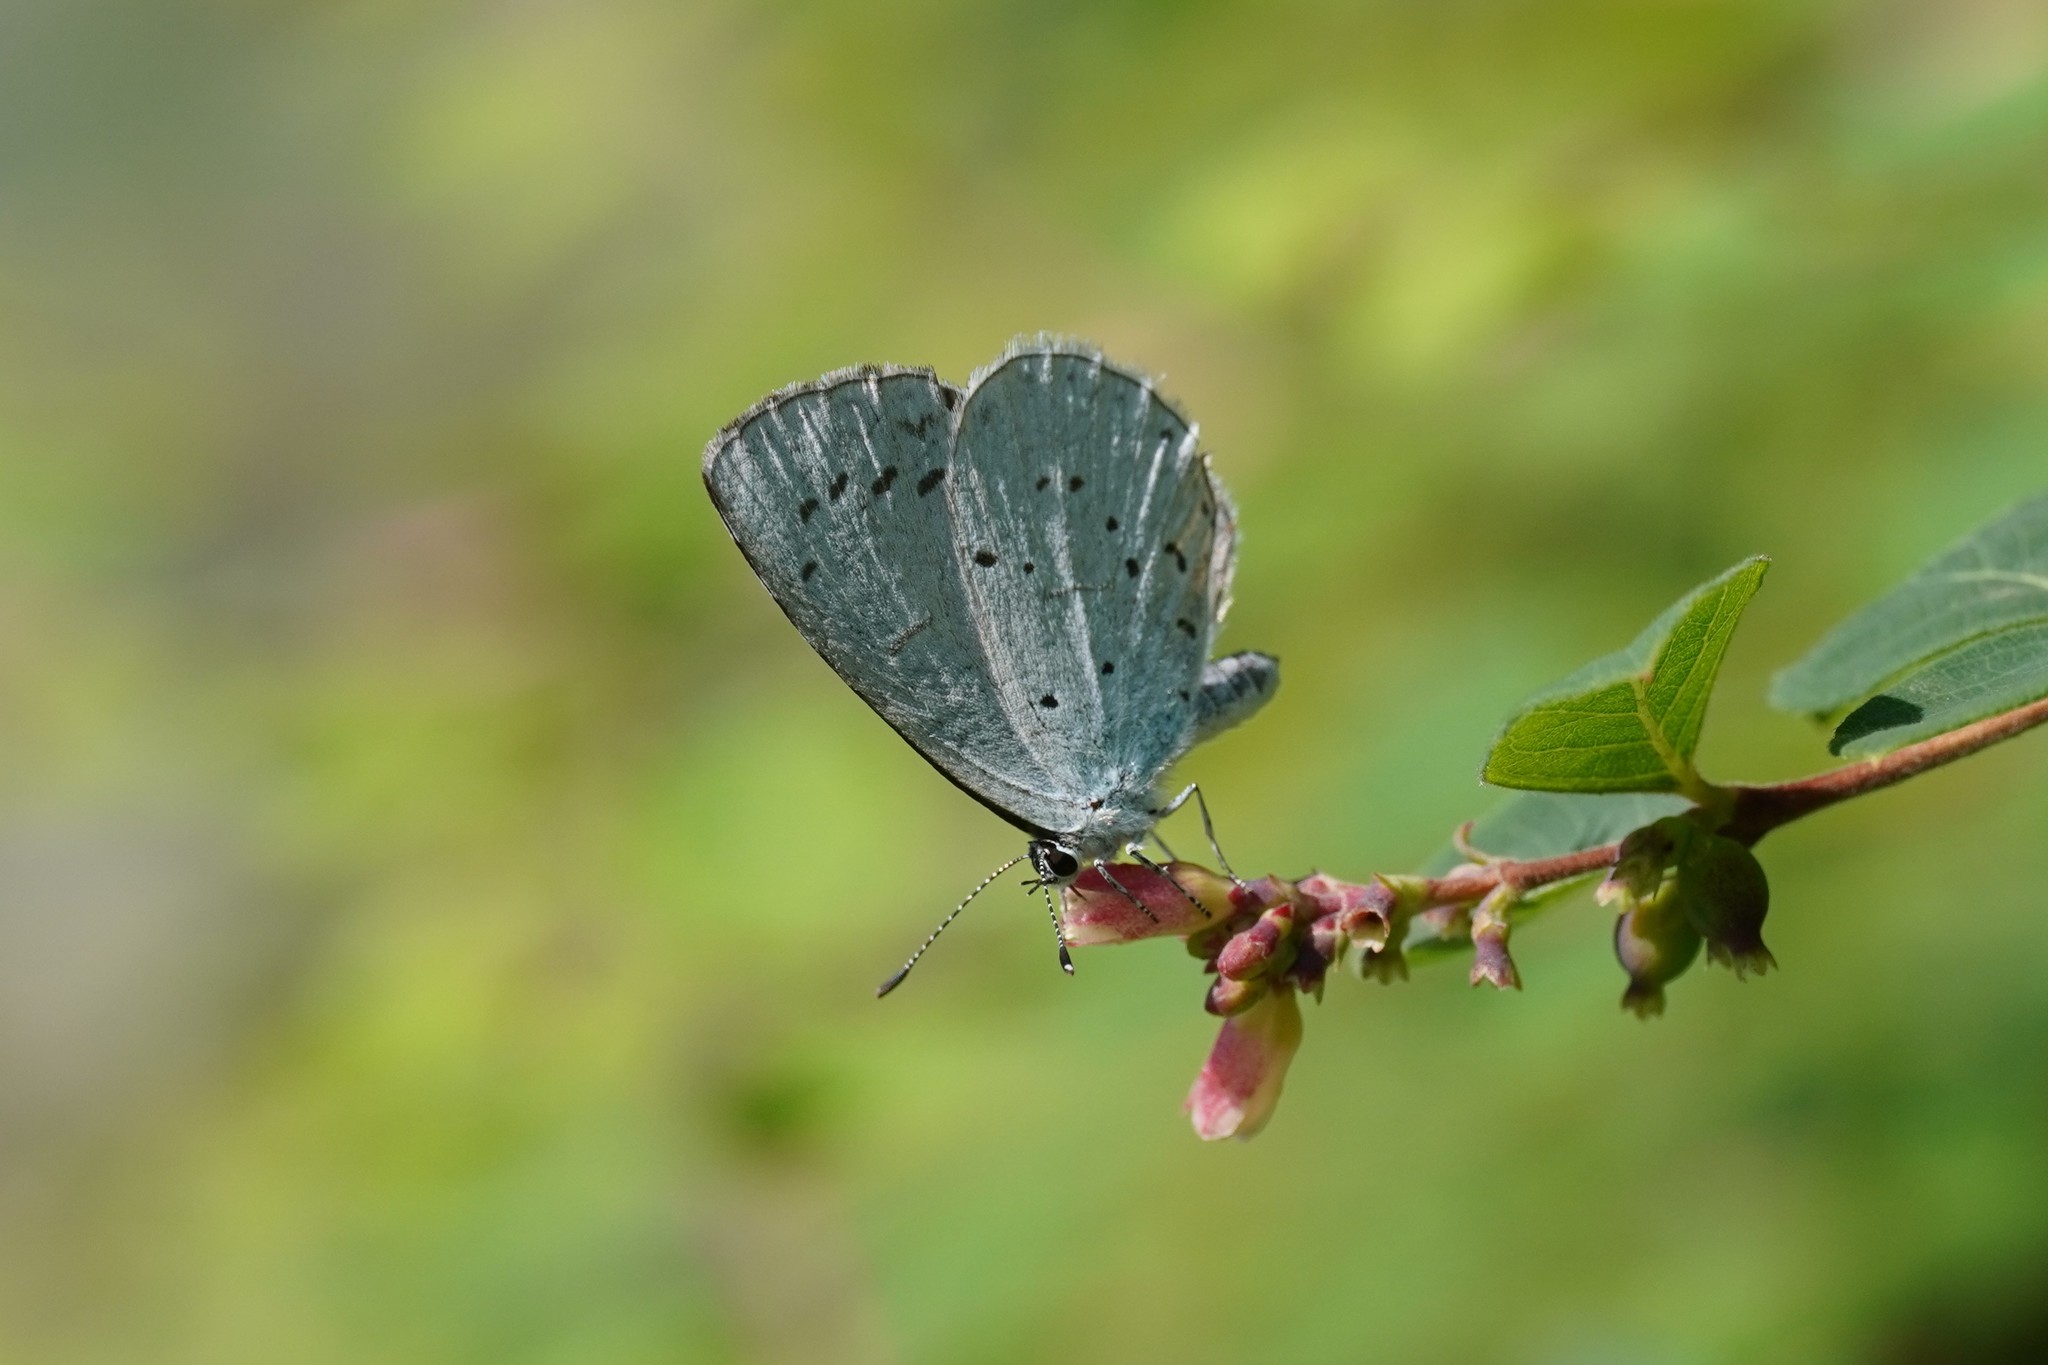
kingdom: Animalia
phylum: Arthropoda
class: Insecta
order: Lepidoptera
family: Lycaenidae
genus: Celastrina
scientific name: Celastrina argiolus
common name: Holly blue
